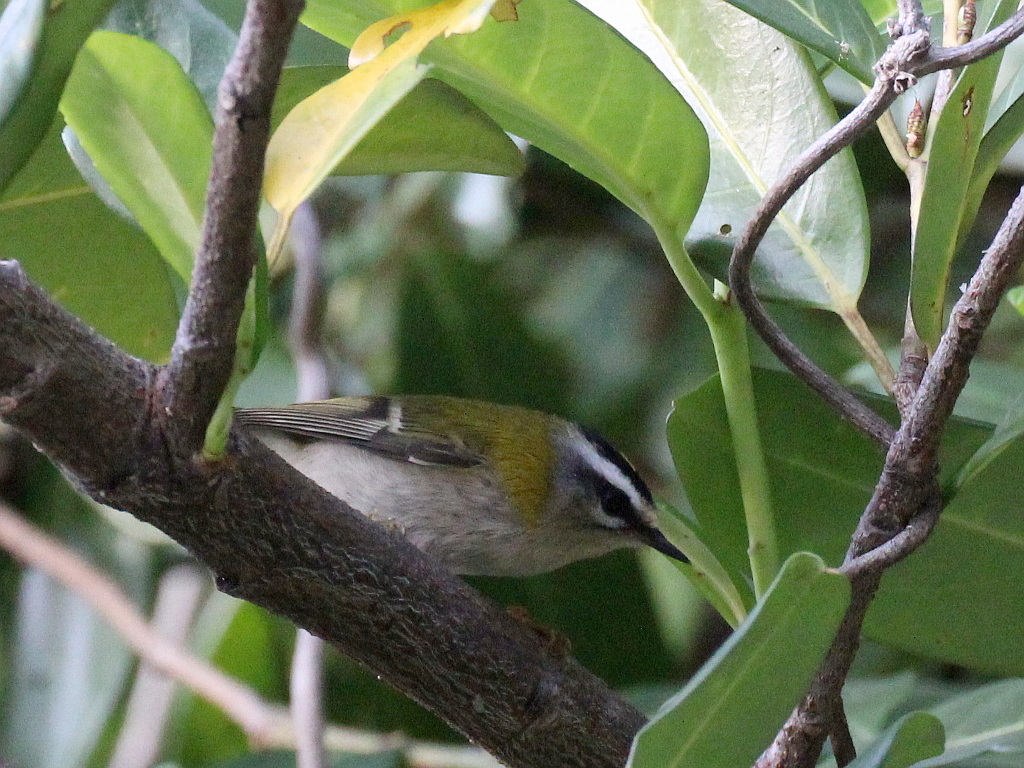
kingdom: Animalia
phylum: Chordata
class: Aves
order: Passeriformes
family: Regulidae
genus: Regulus
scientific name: Regulus ignicapilla
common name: Firecrest
